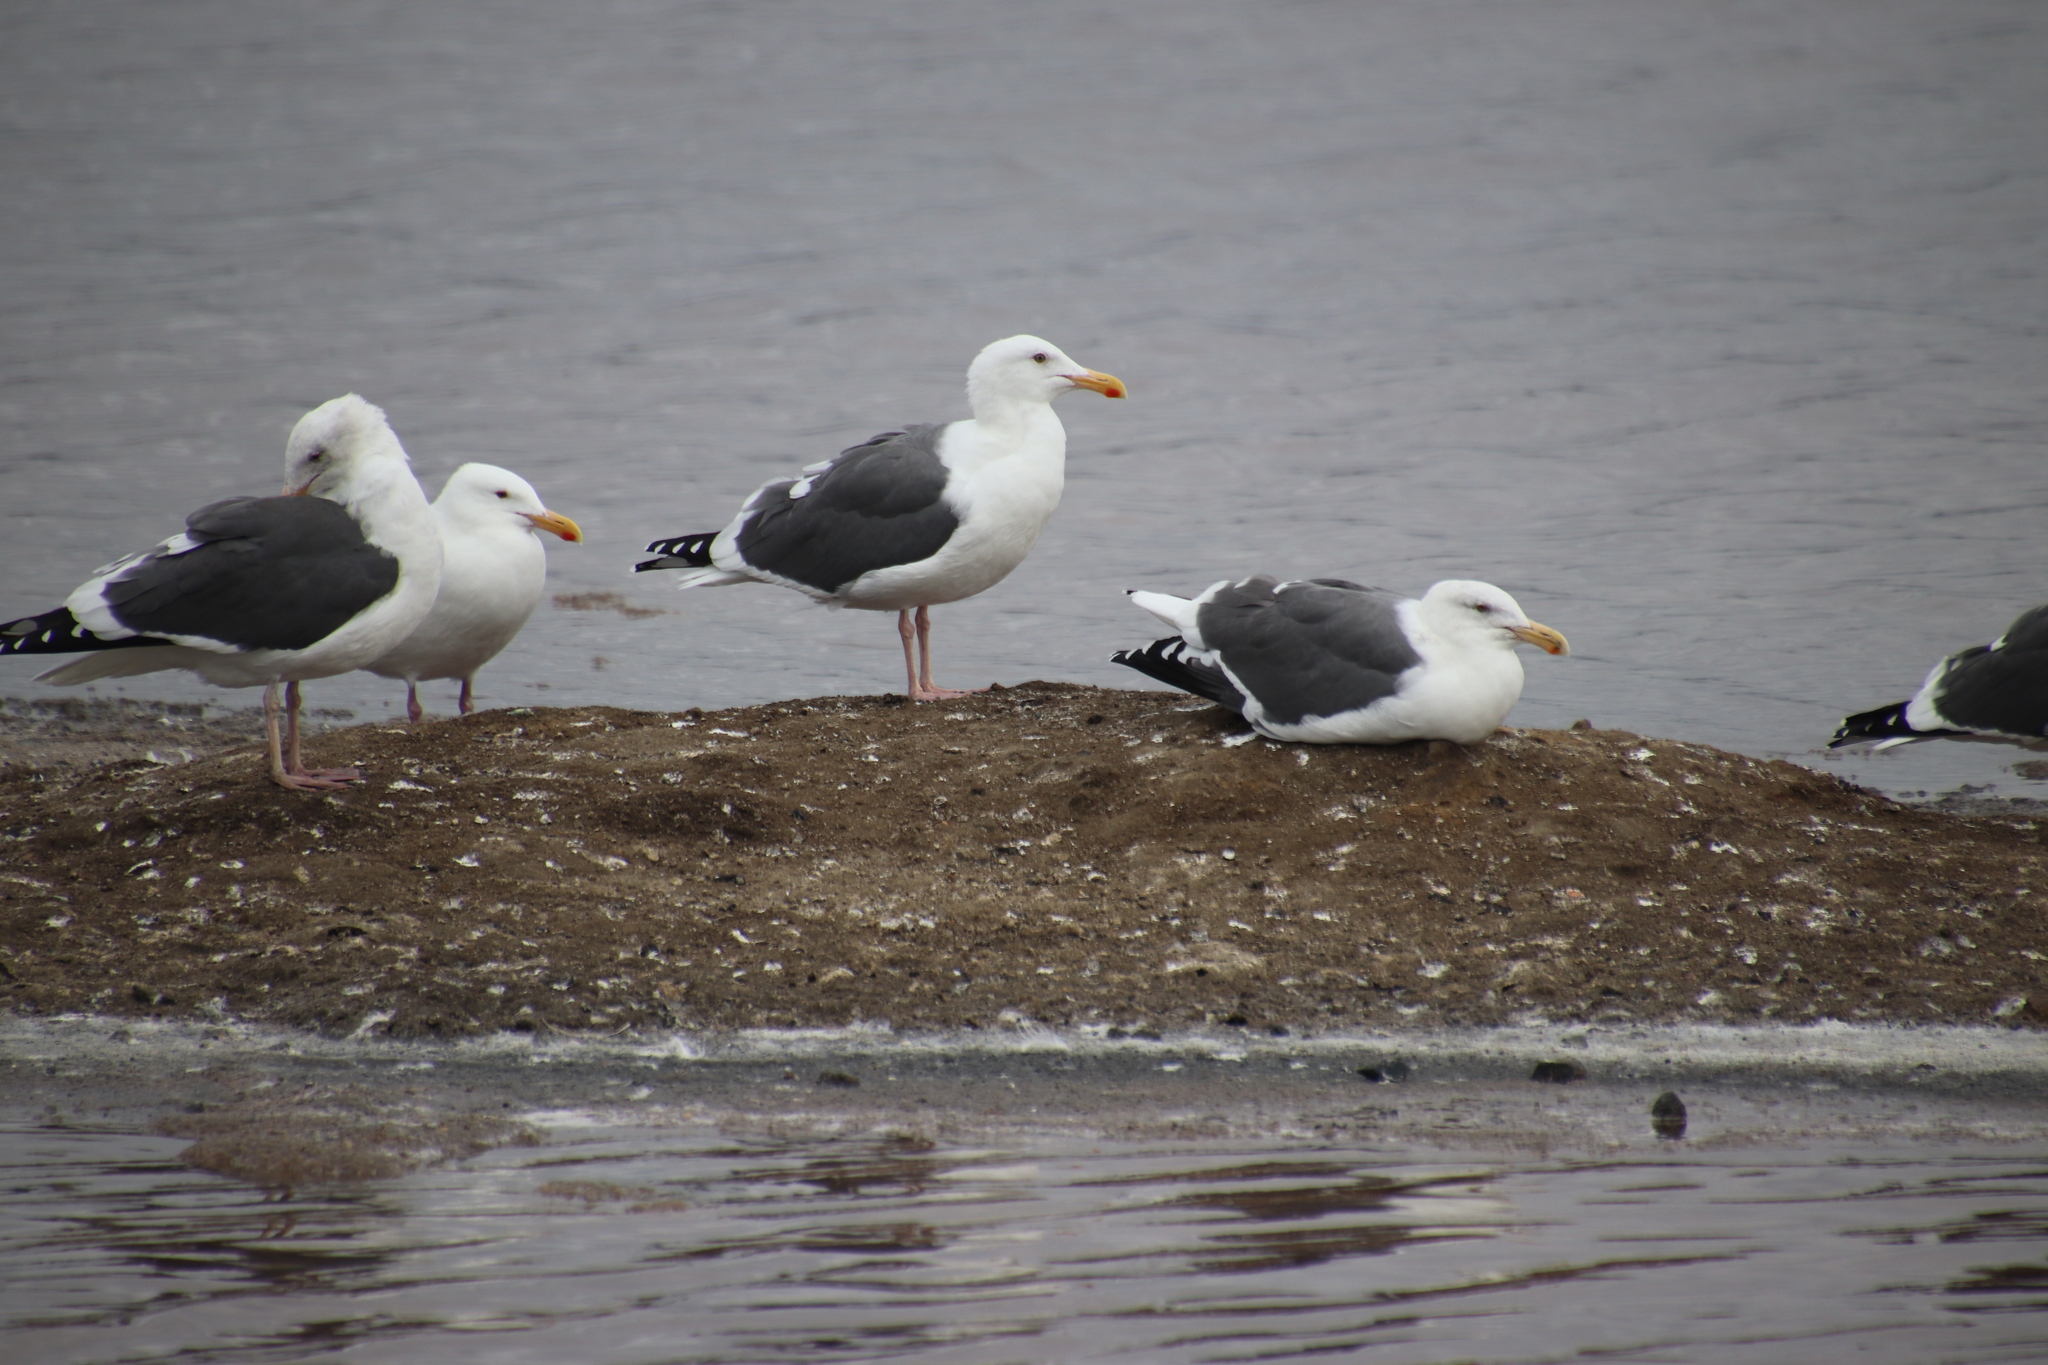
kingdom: Animalia
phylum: Chordata
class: Aves
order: Charadriiformes
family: Laridae
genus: Larus
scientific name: Larus occidentalis
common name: Western gull
